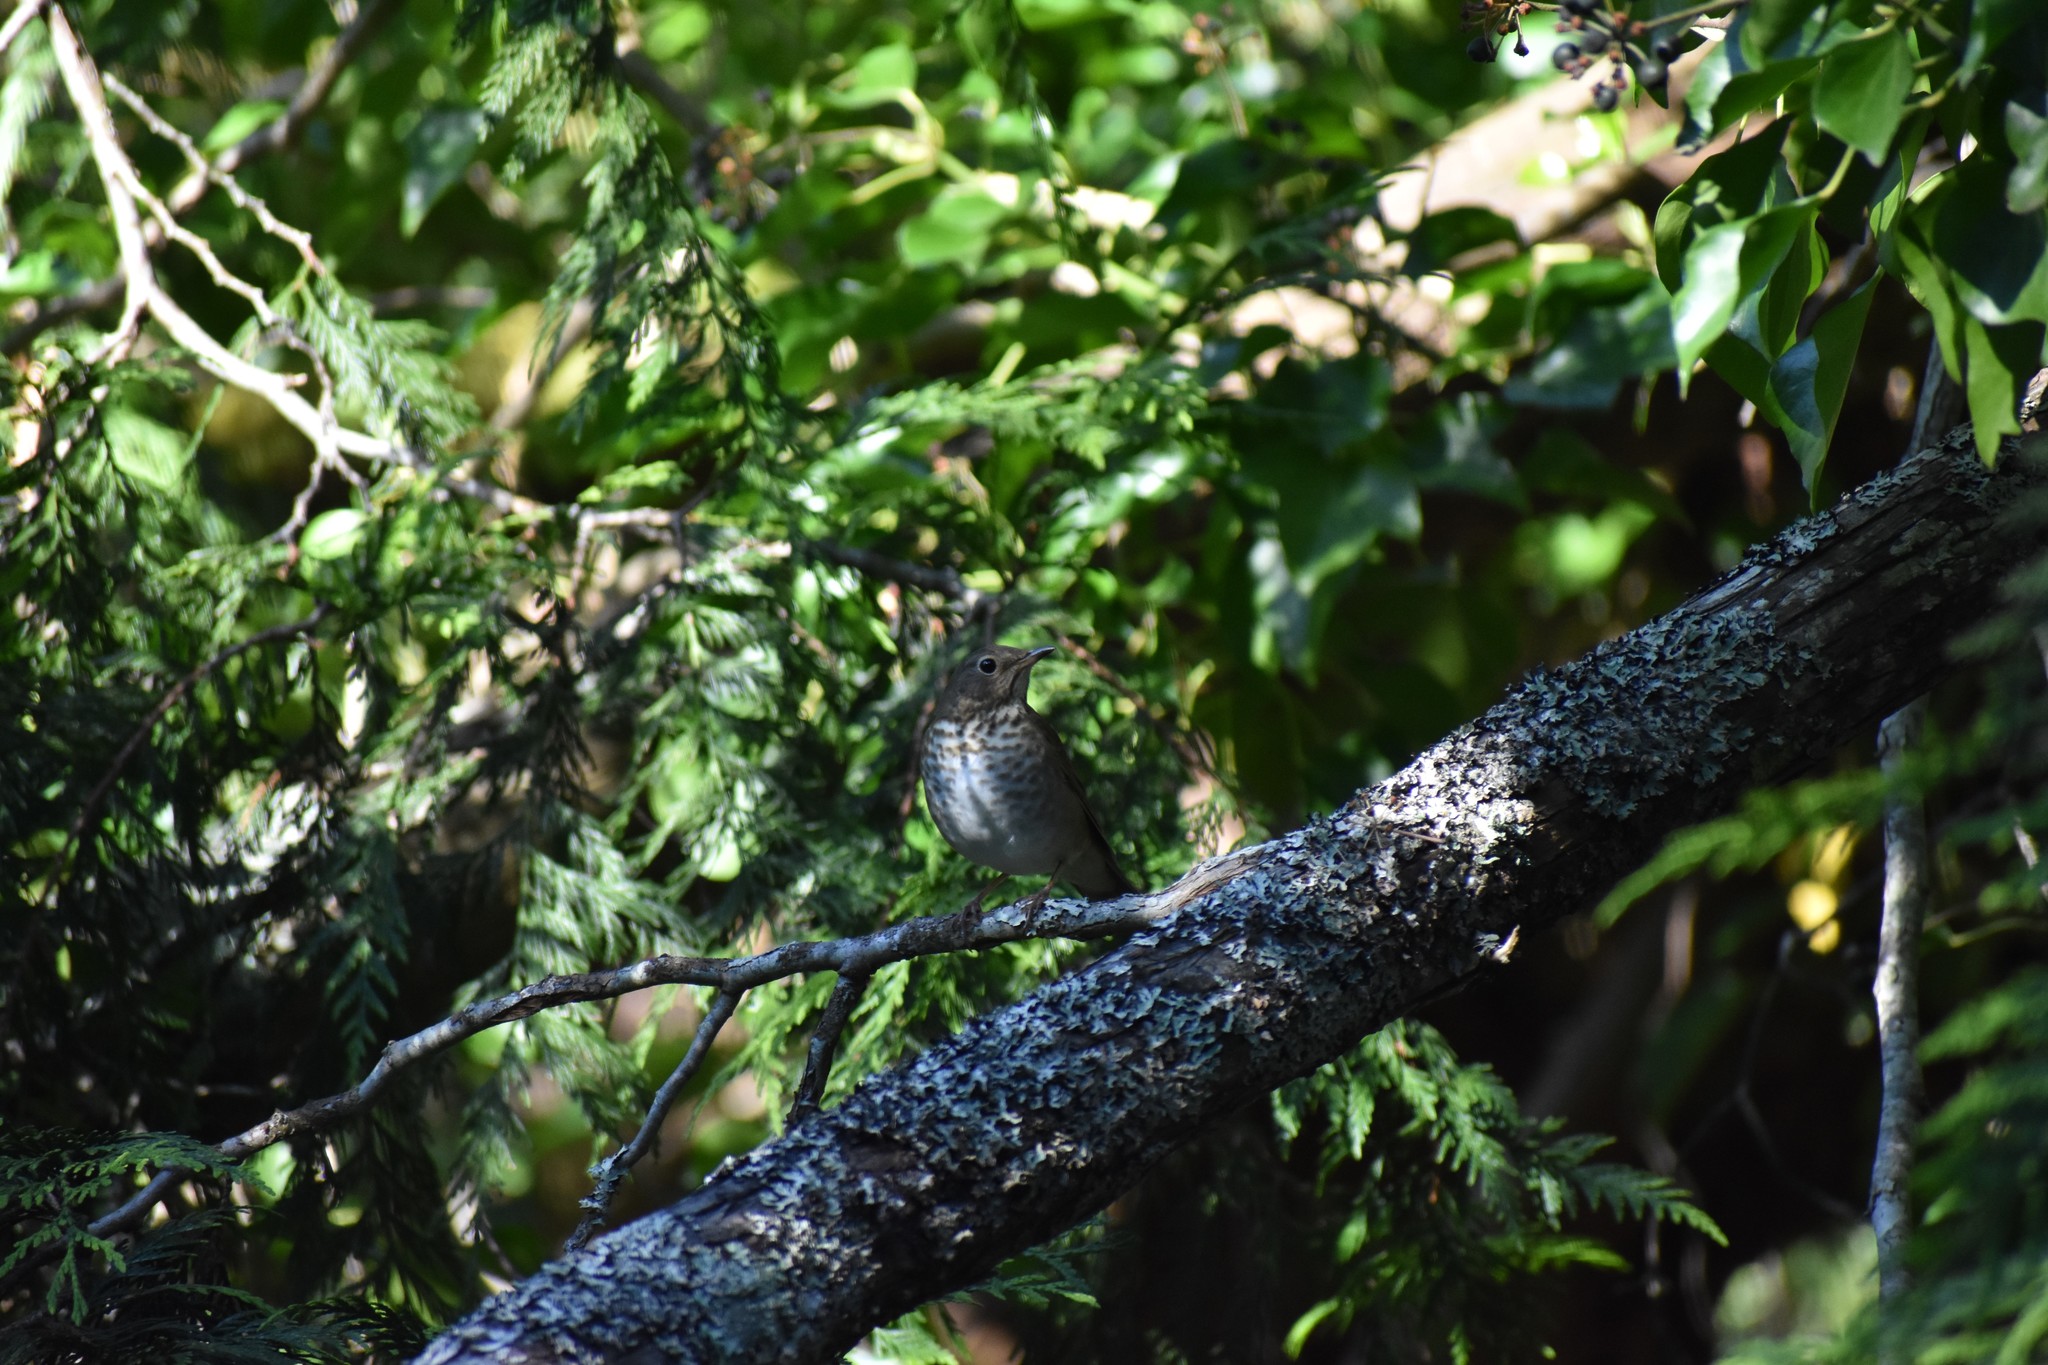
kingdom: Animalia
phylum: Chordata
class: Aves
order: Passeriformes
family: Turdidae
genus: Catharus
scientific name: Catharus ustulatus
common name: Swainson's thrush
